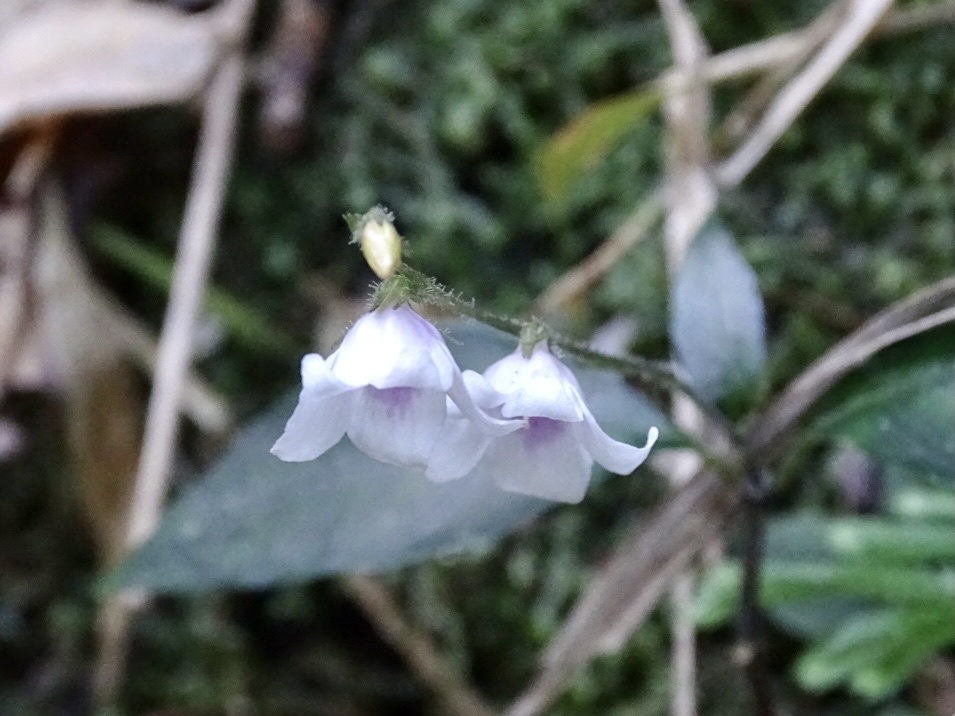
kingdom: Plantae
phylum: Tracheophyta
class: Magnoliopsida
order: Lamiales
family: Acanthaceae
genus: Codonacanthus
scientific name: Codonacanthus pauciflorus
